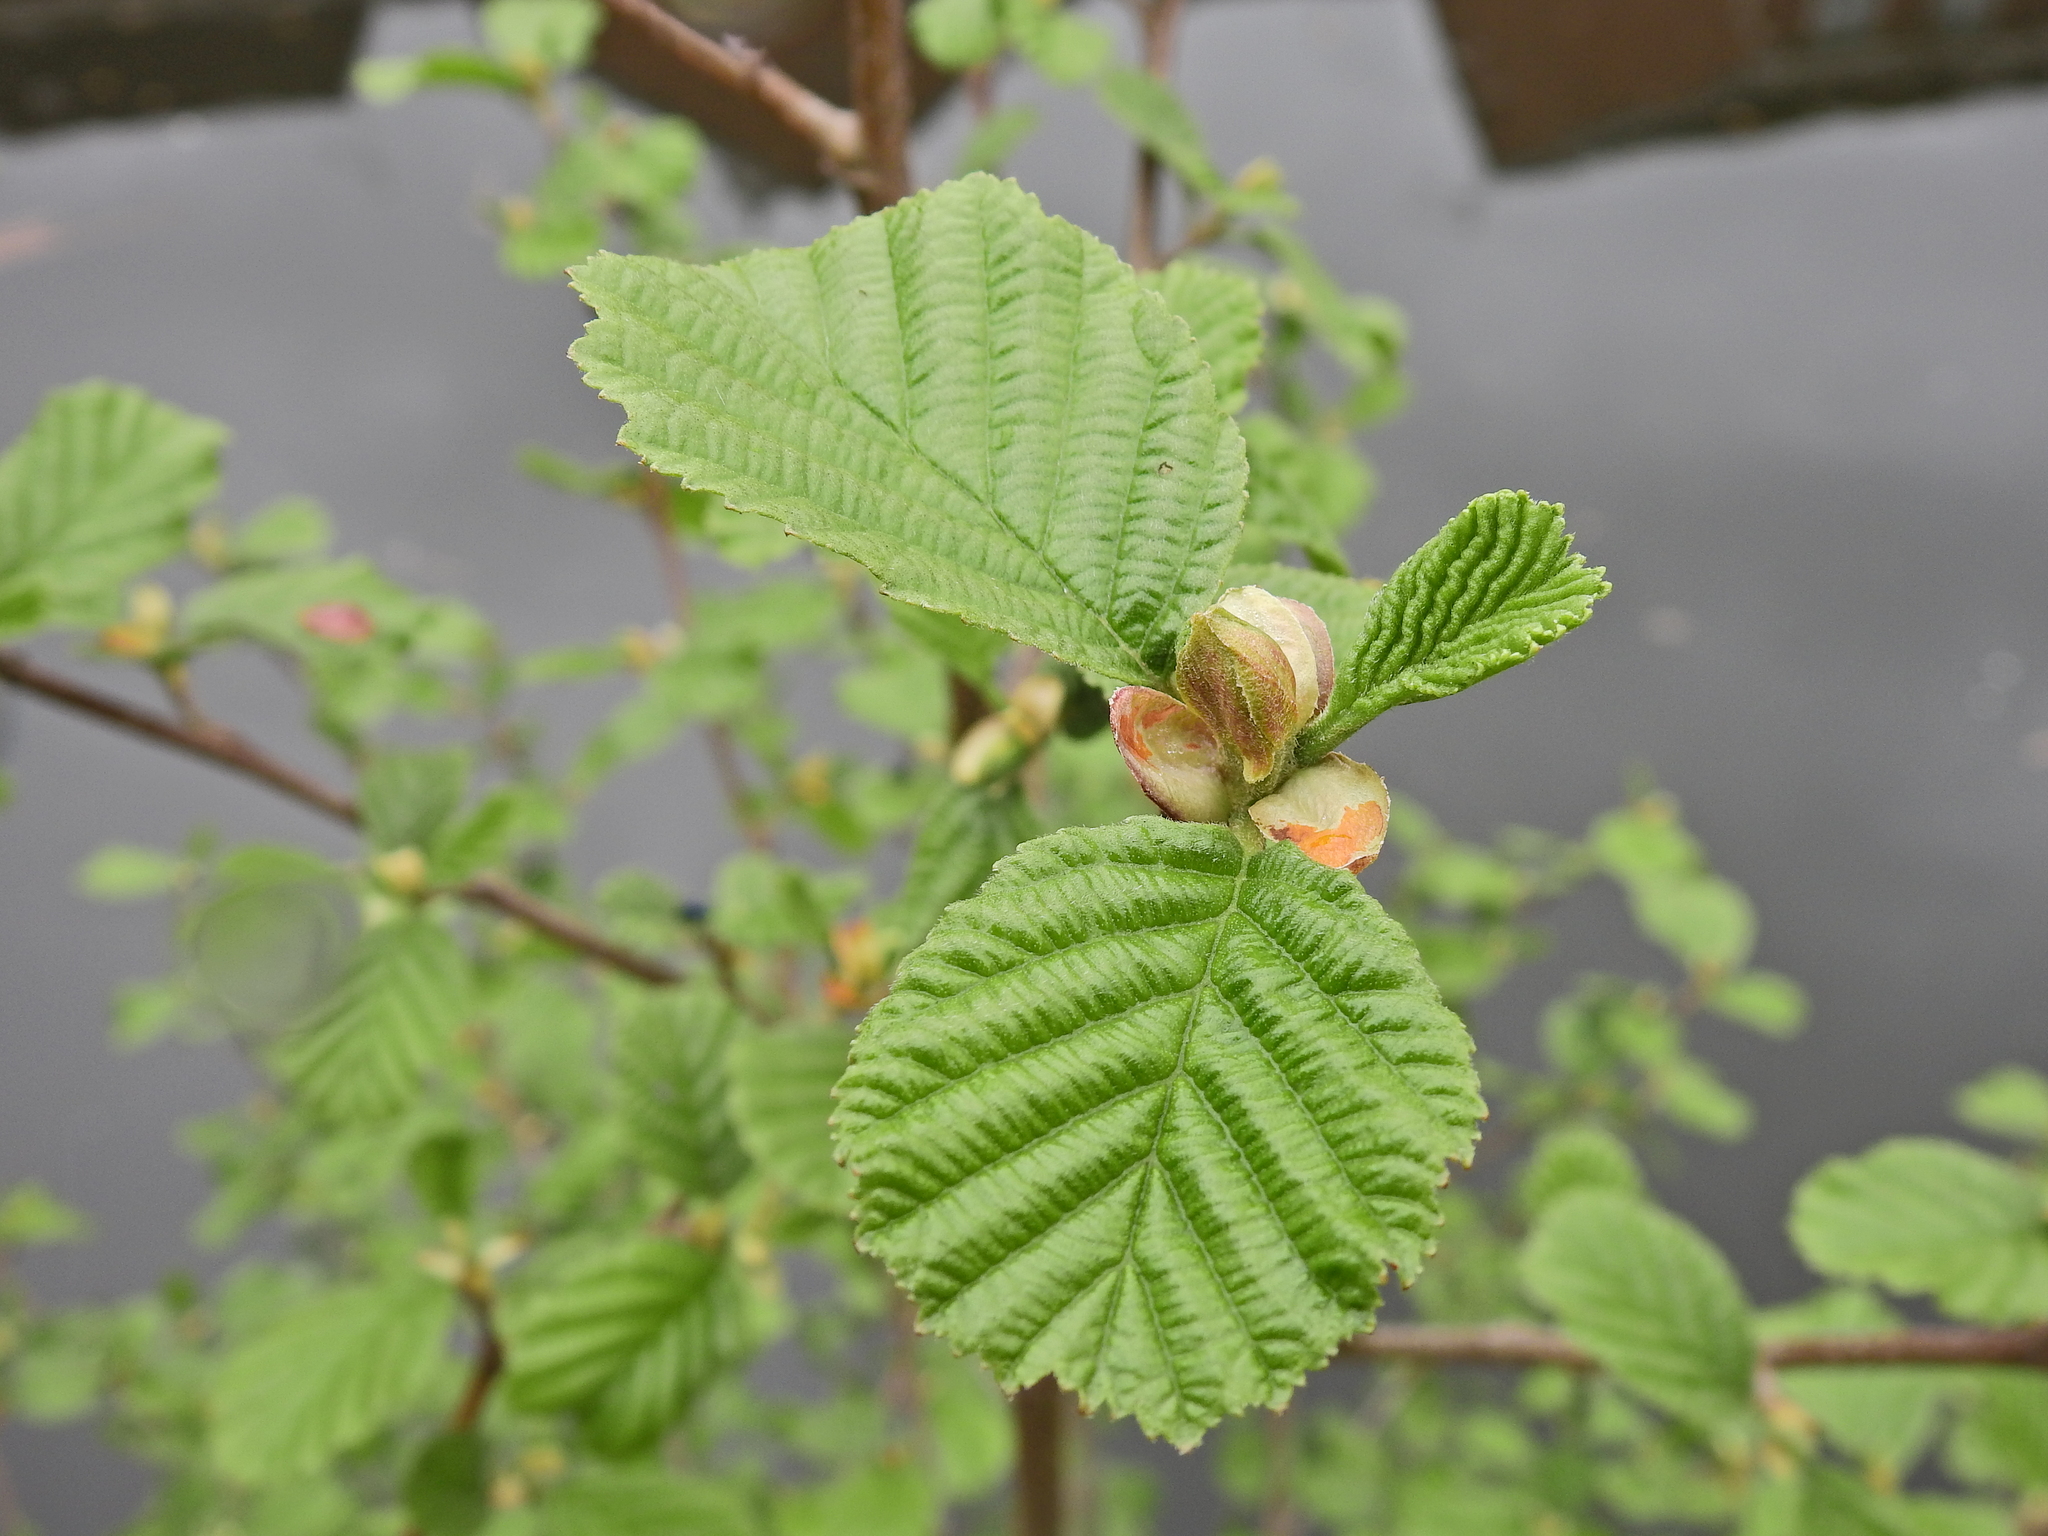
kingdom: Plantae
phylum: Tracheophyta
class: Magnoliopsida
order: Fagales
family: Betulaceae
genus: Alnus
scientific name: Alnus glutinosa
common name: Black alder
